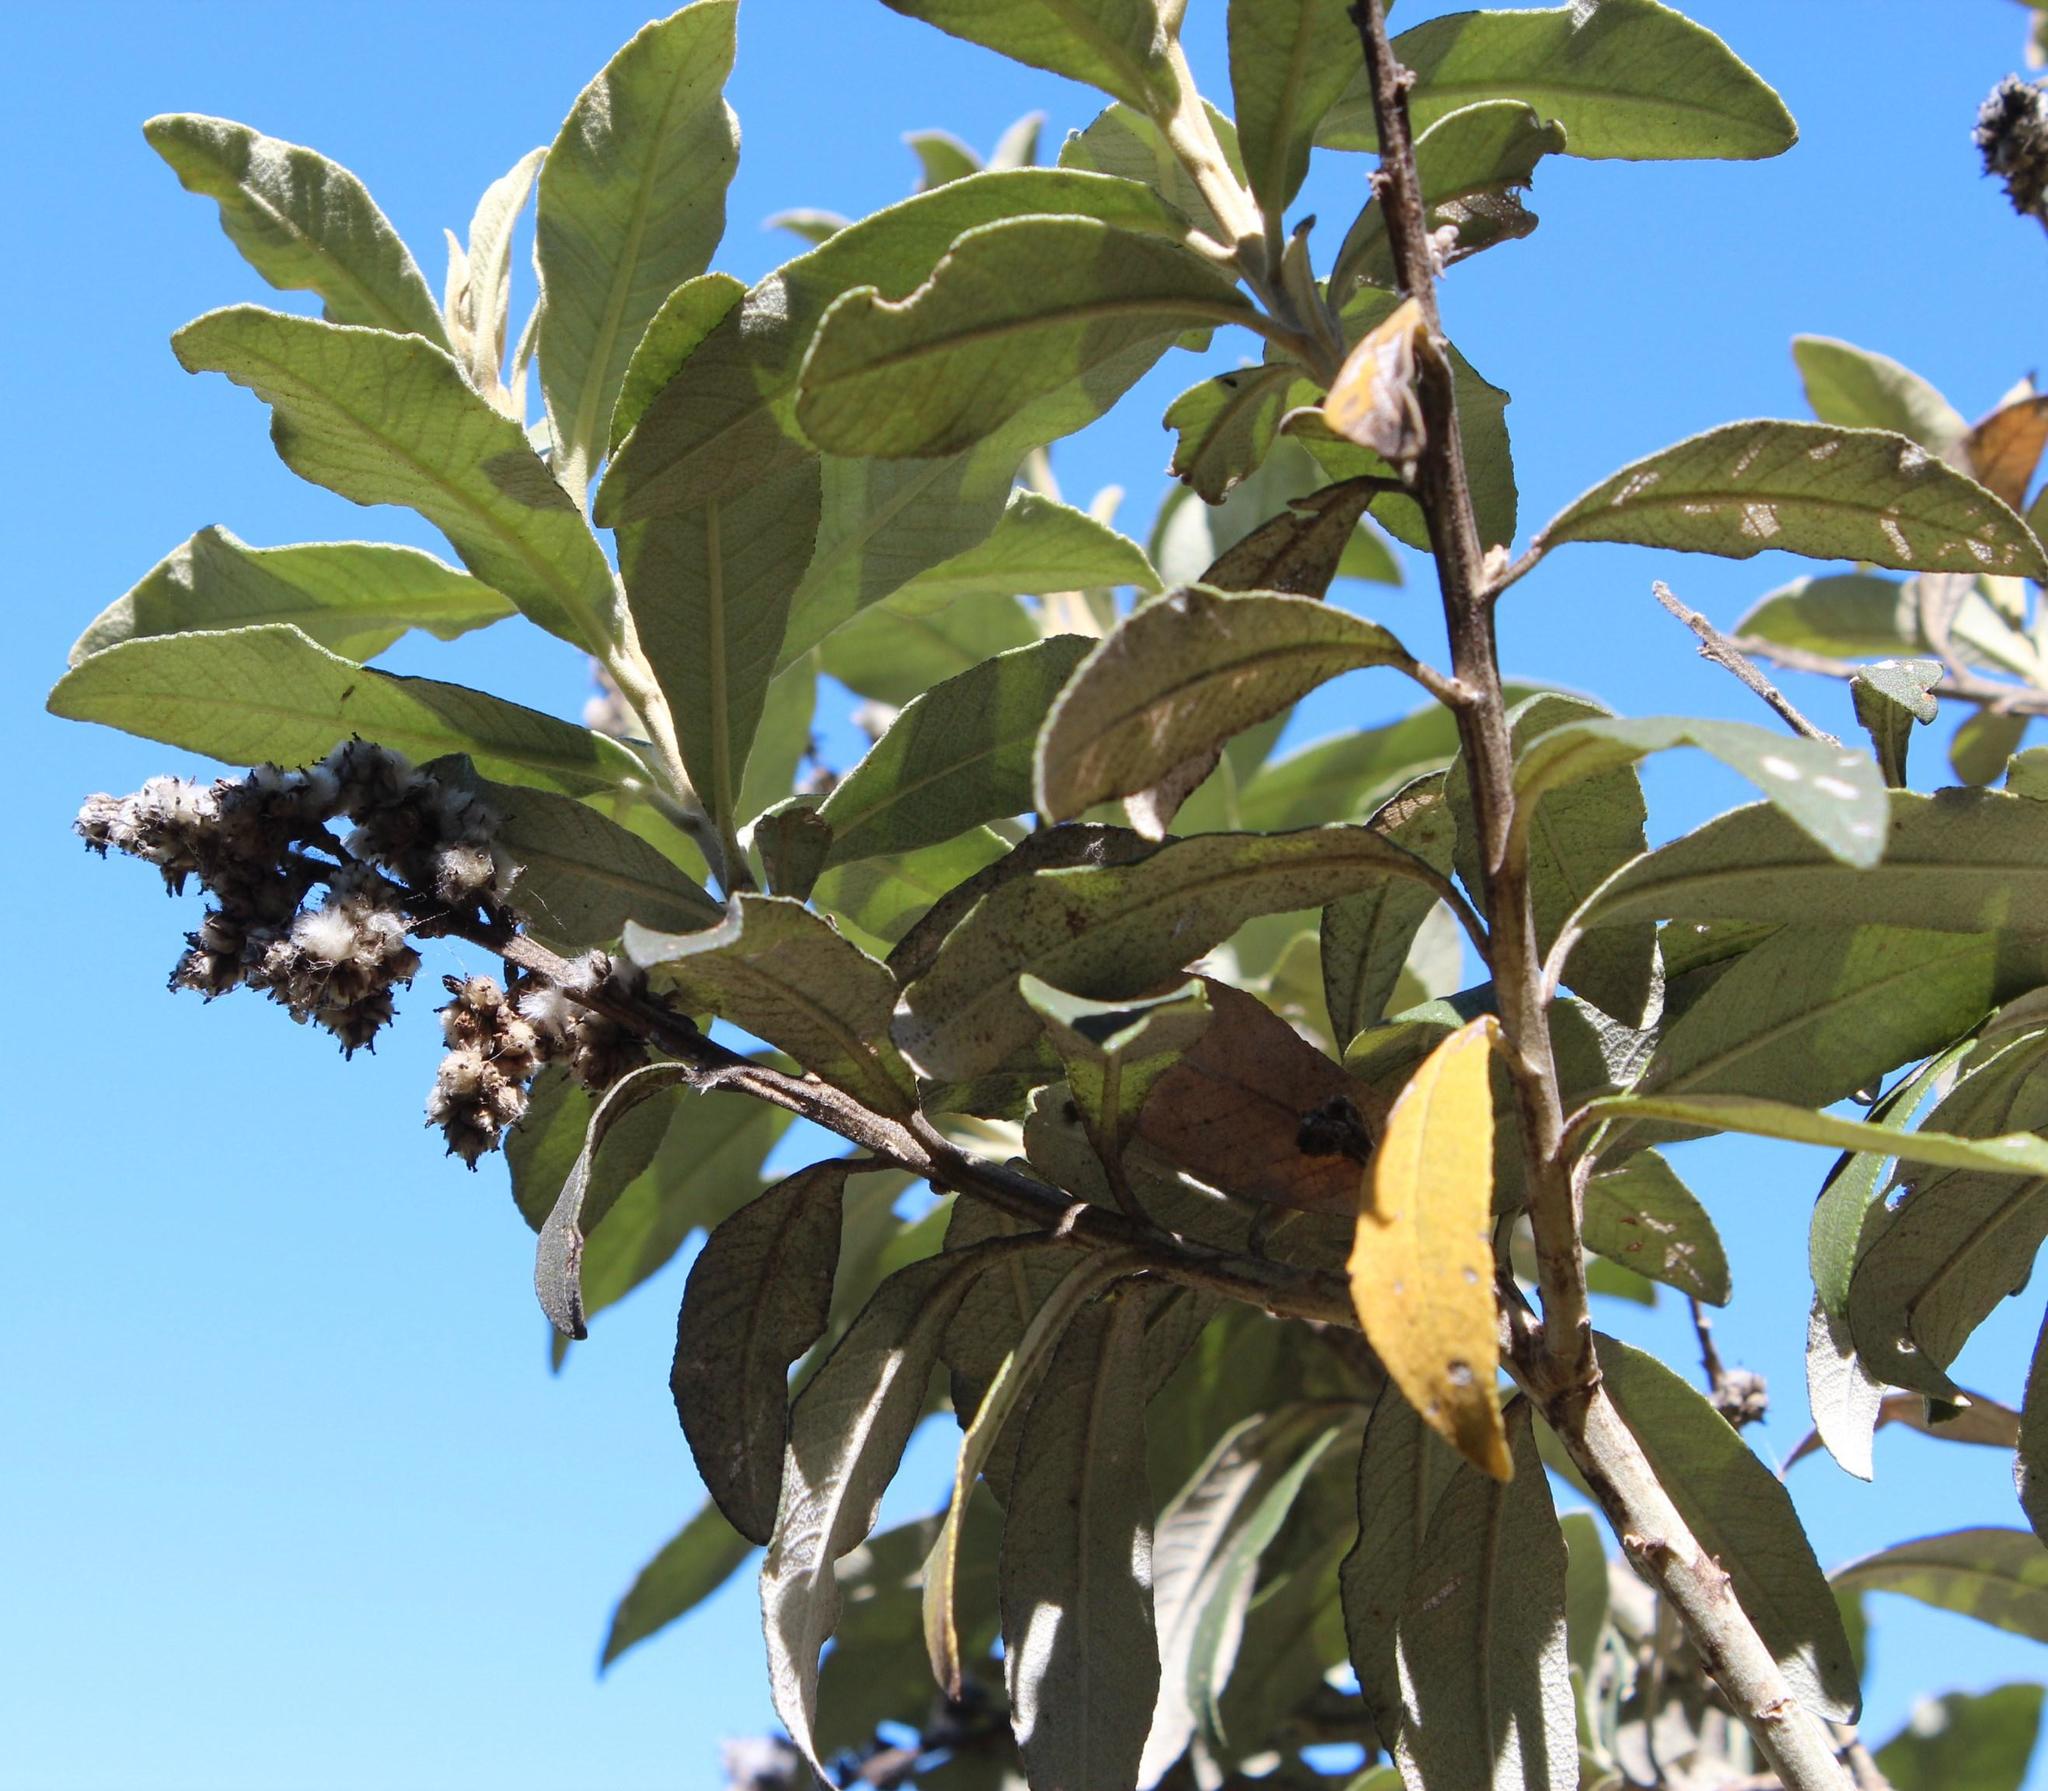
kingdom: Plantae
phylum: Tracheophyta
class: Magnoliopsida
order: Asterales
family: Asteraceae
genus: Tarchonanthus
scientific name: Tarchonanthus littoralis
